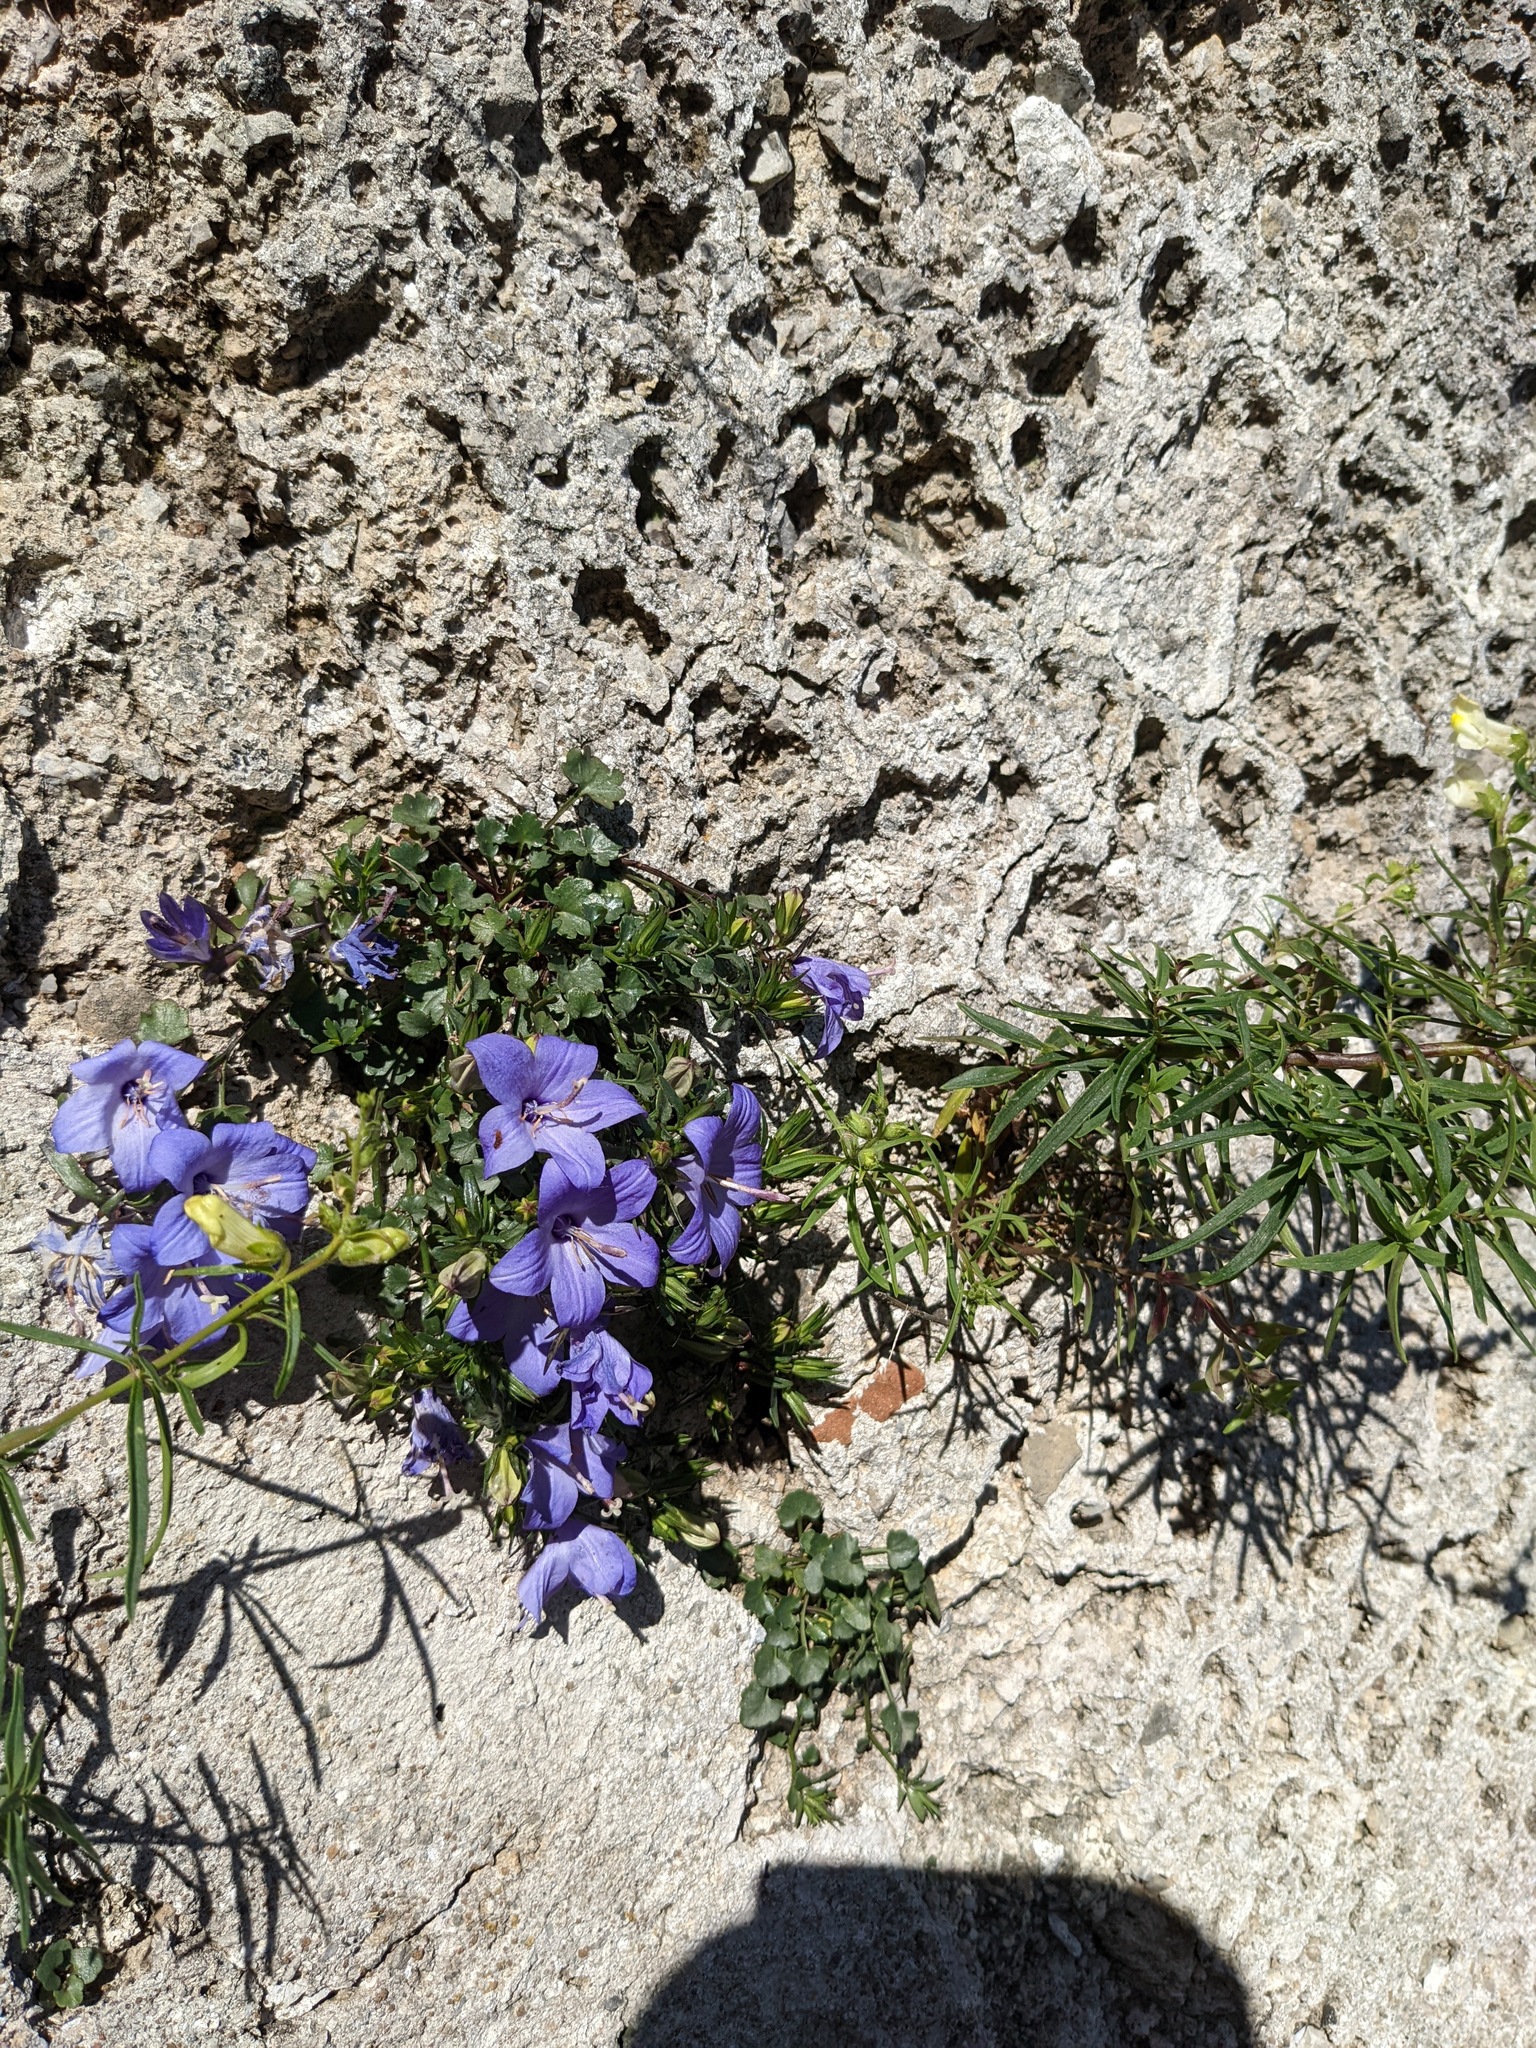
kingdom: Plantae
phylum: Tracheophyta
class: Magnoliopsida
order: Asterales
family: Campanulaceae
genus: Campanula
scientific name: Campanula fragilis
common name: Italian bellflower
